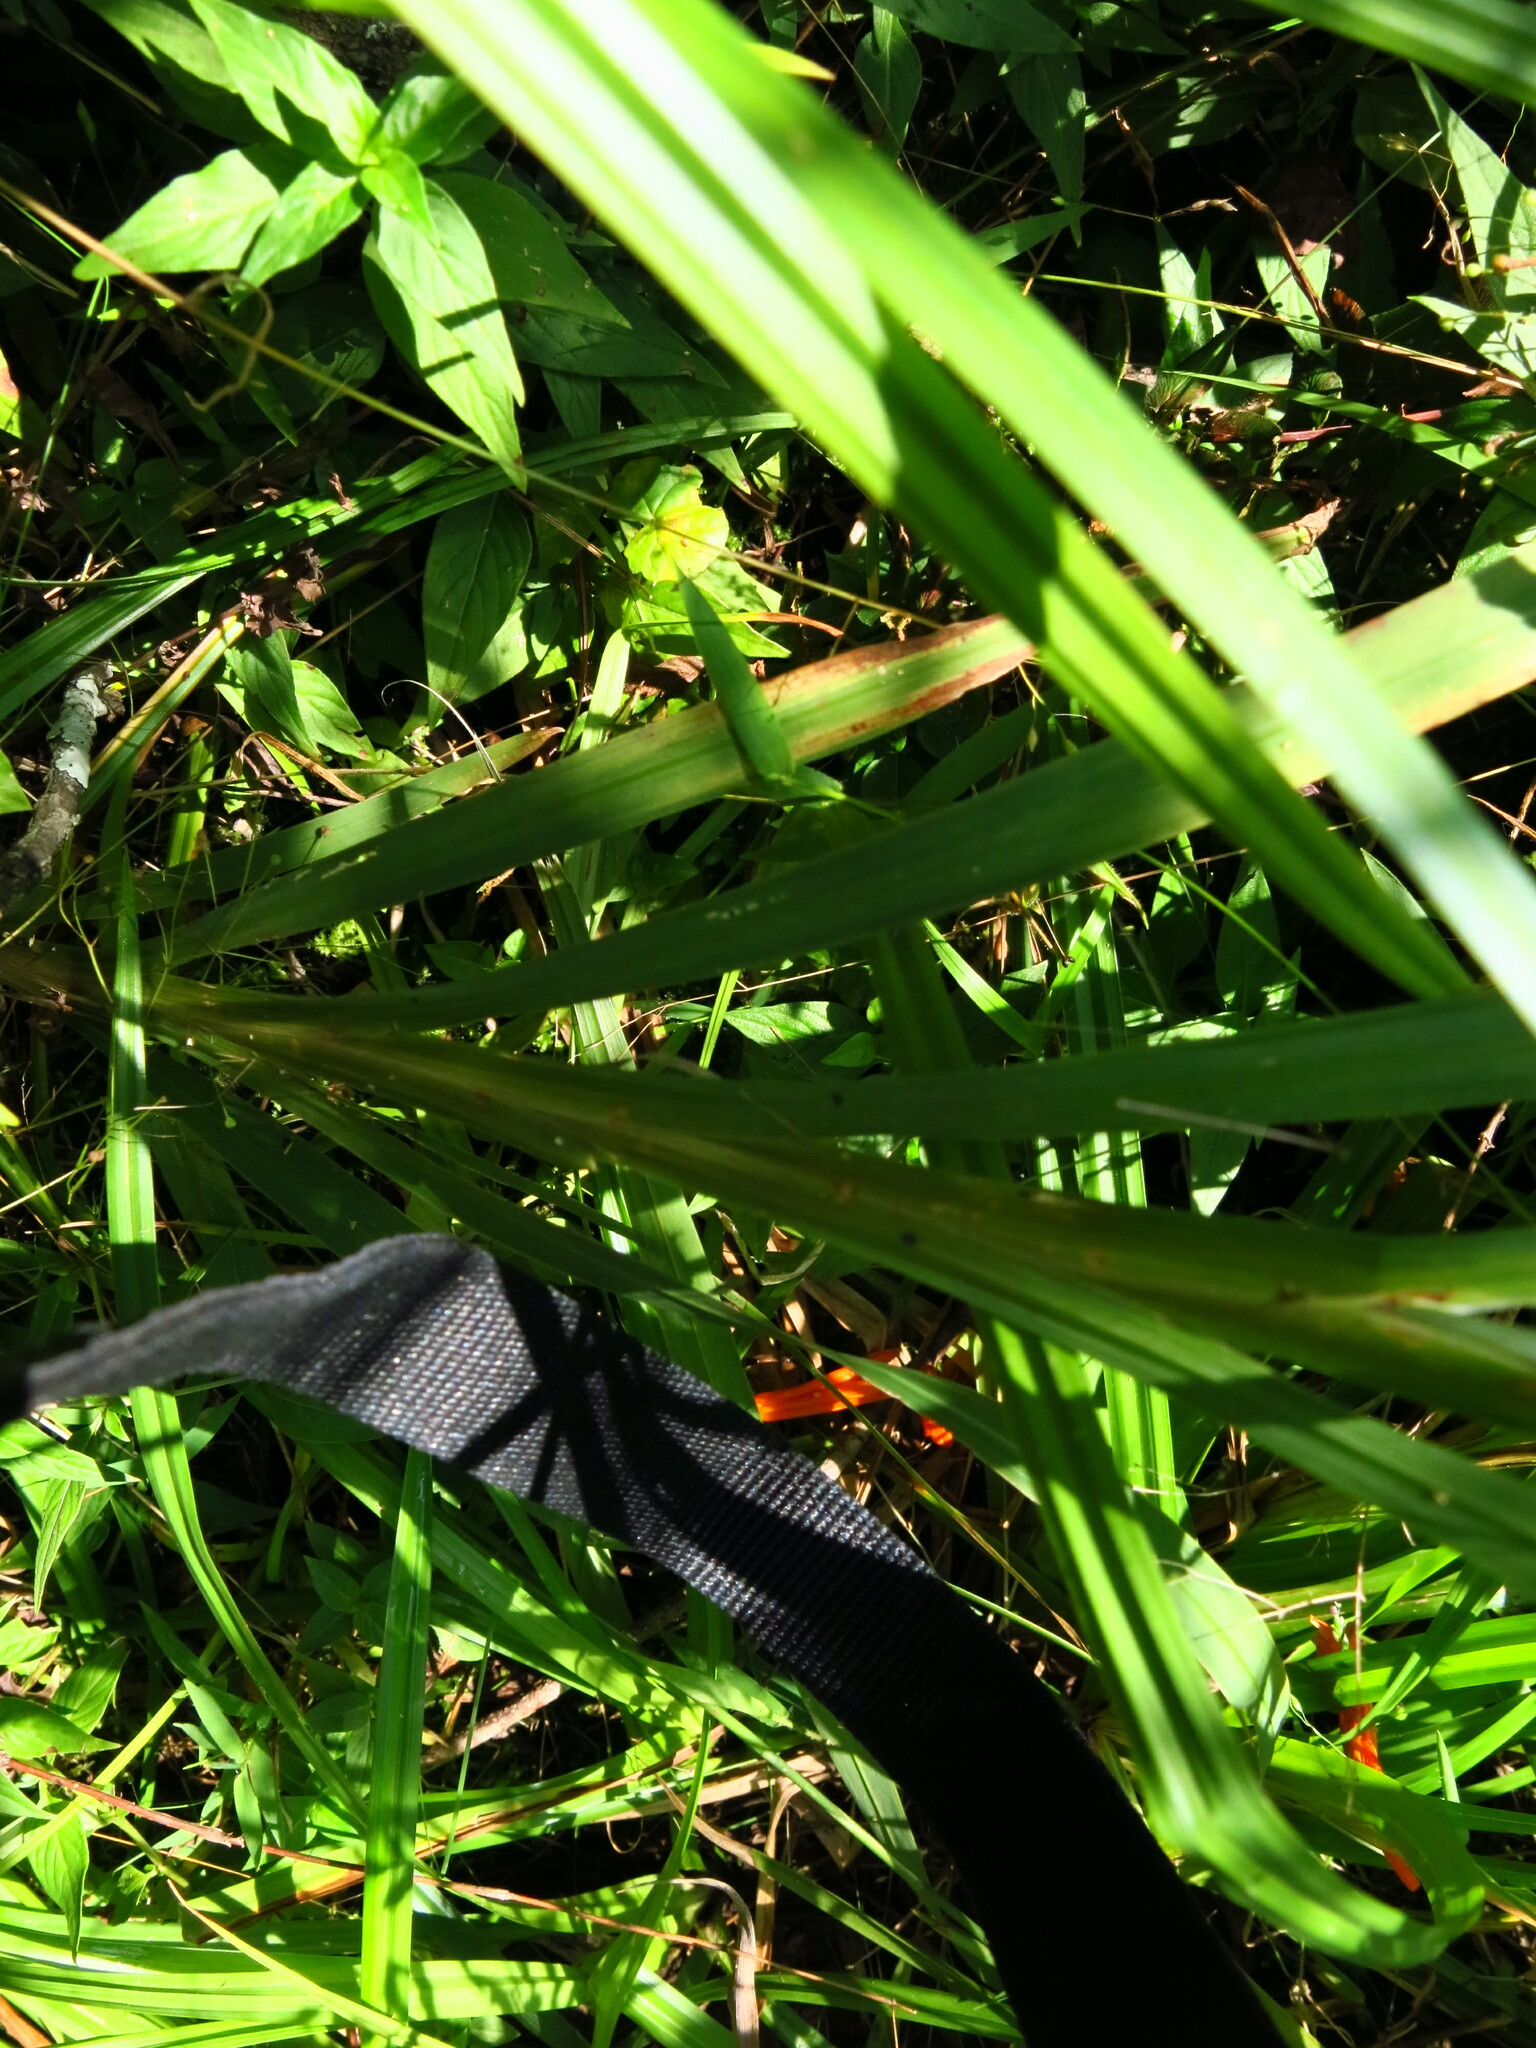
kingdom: Plantae
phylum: Tracheophyta
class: Liliopsida
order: Asparagales
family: Iridaceae
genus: Crocosmia
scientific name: Crocosmia aurea
